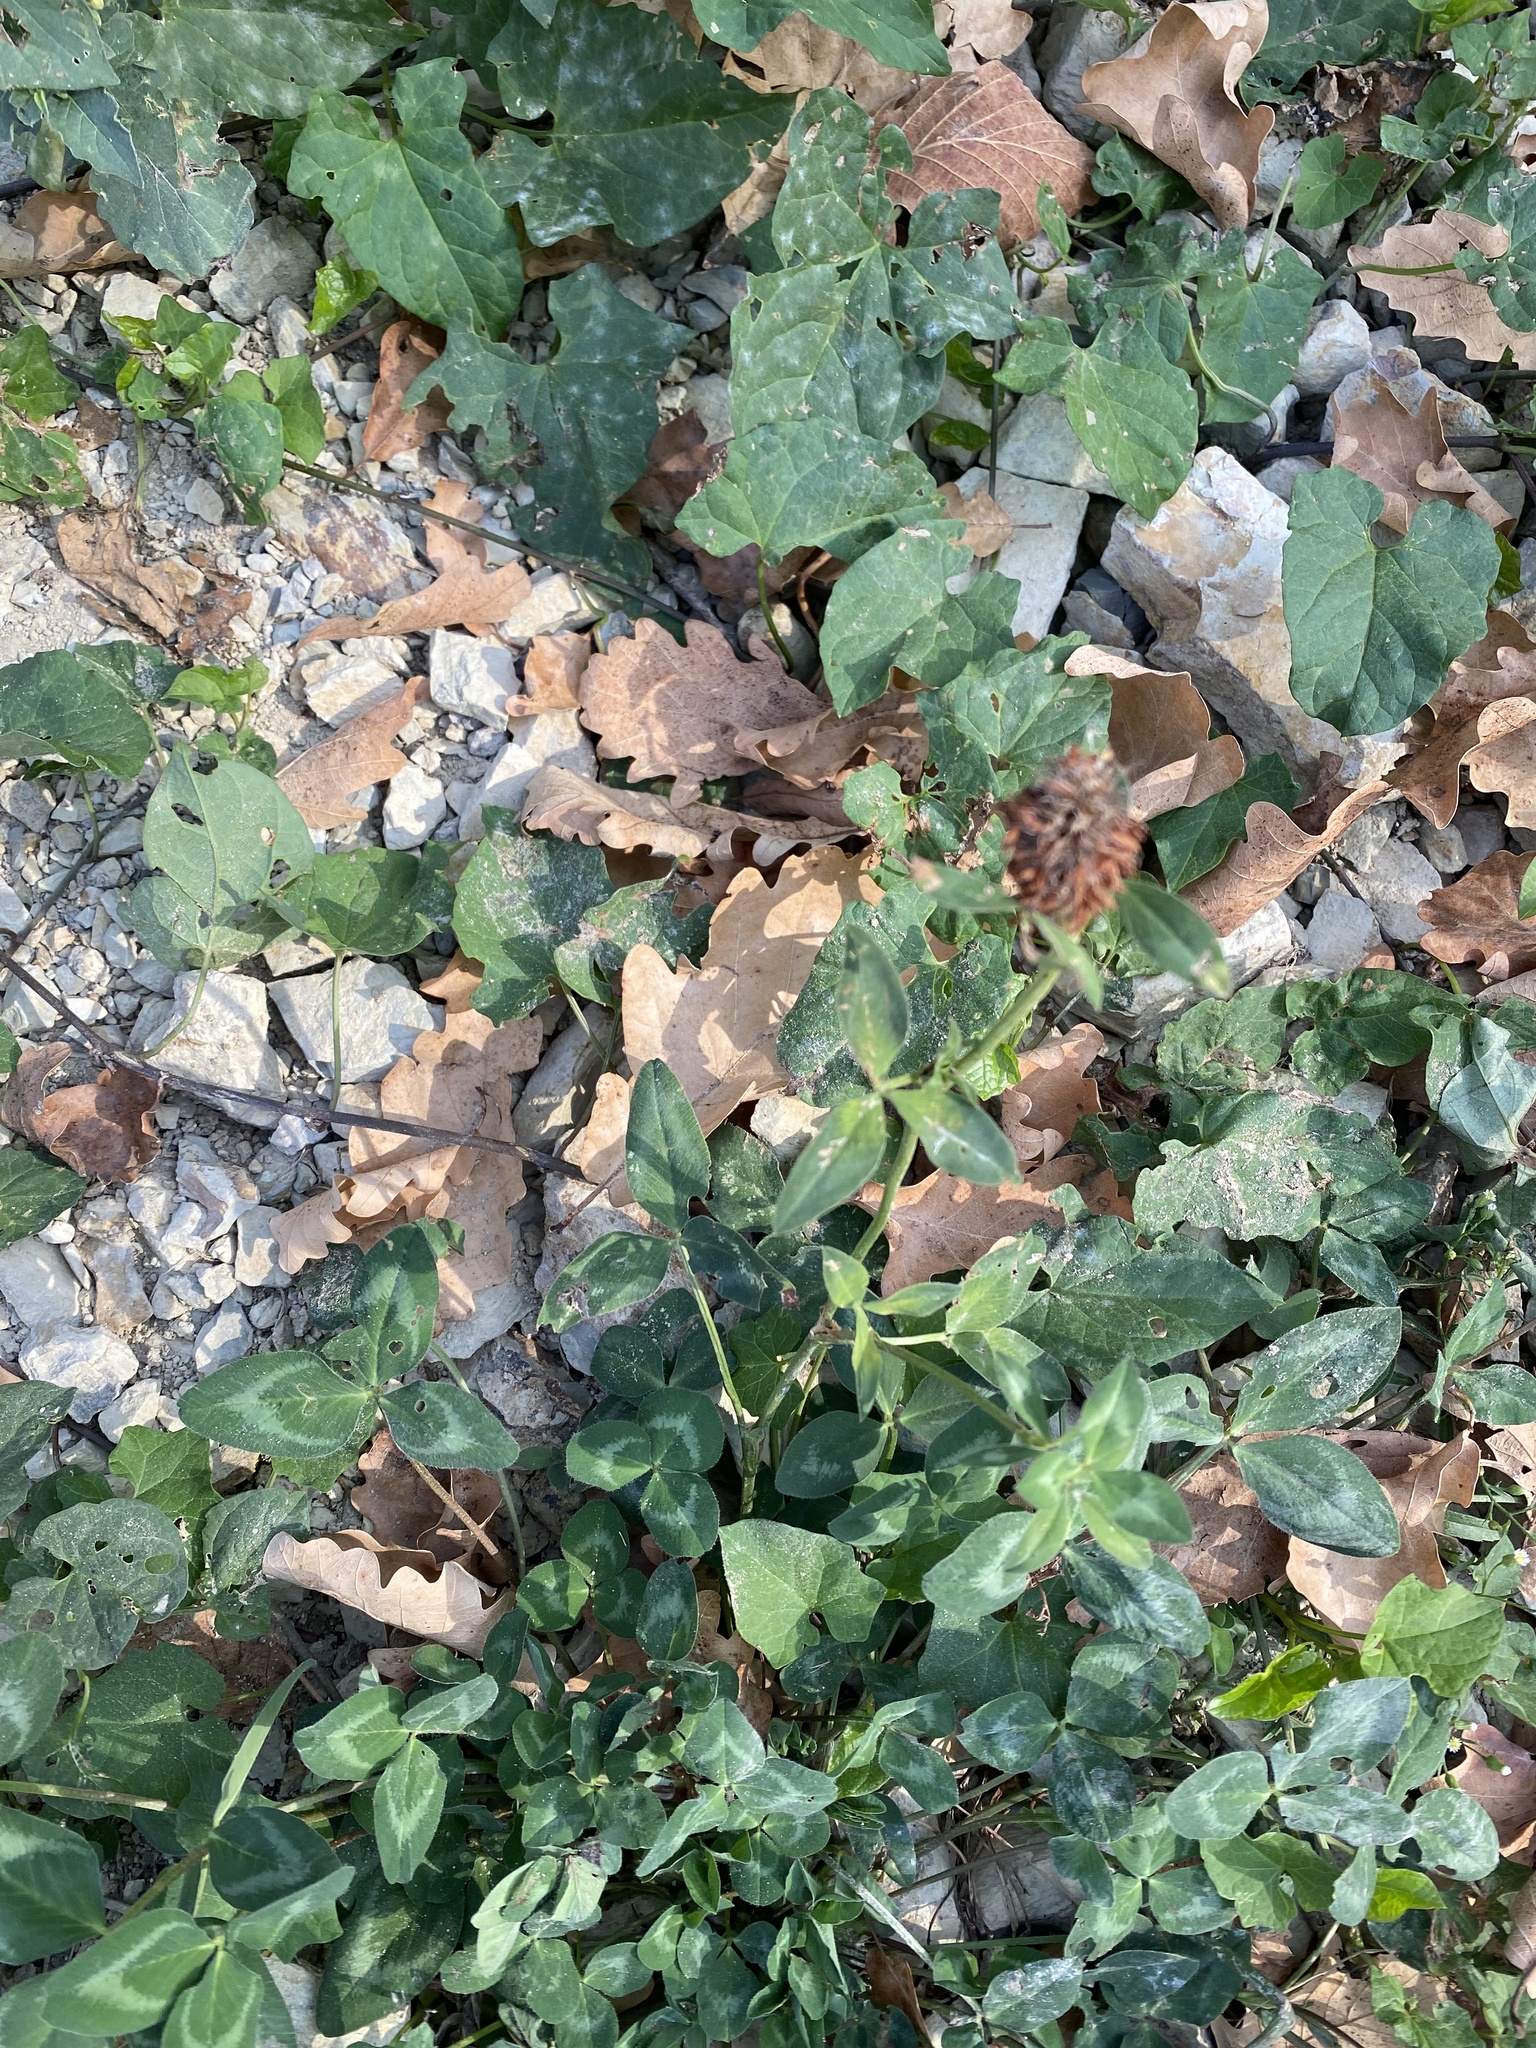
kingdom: Plantae
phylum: Tracheophyta
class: Magnoliopsida
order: Fabales
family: Fabaceae
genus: Trifolium
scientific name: Trifolium pratense
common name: Red clover
